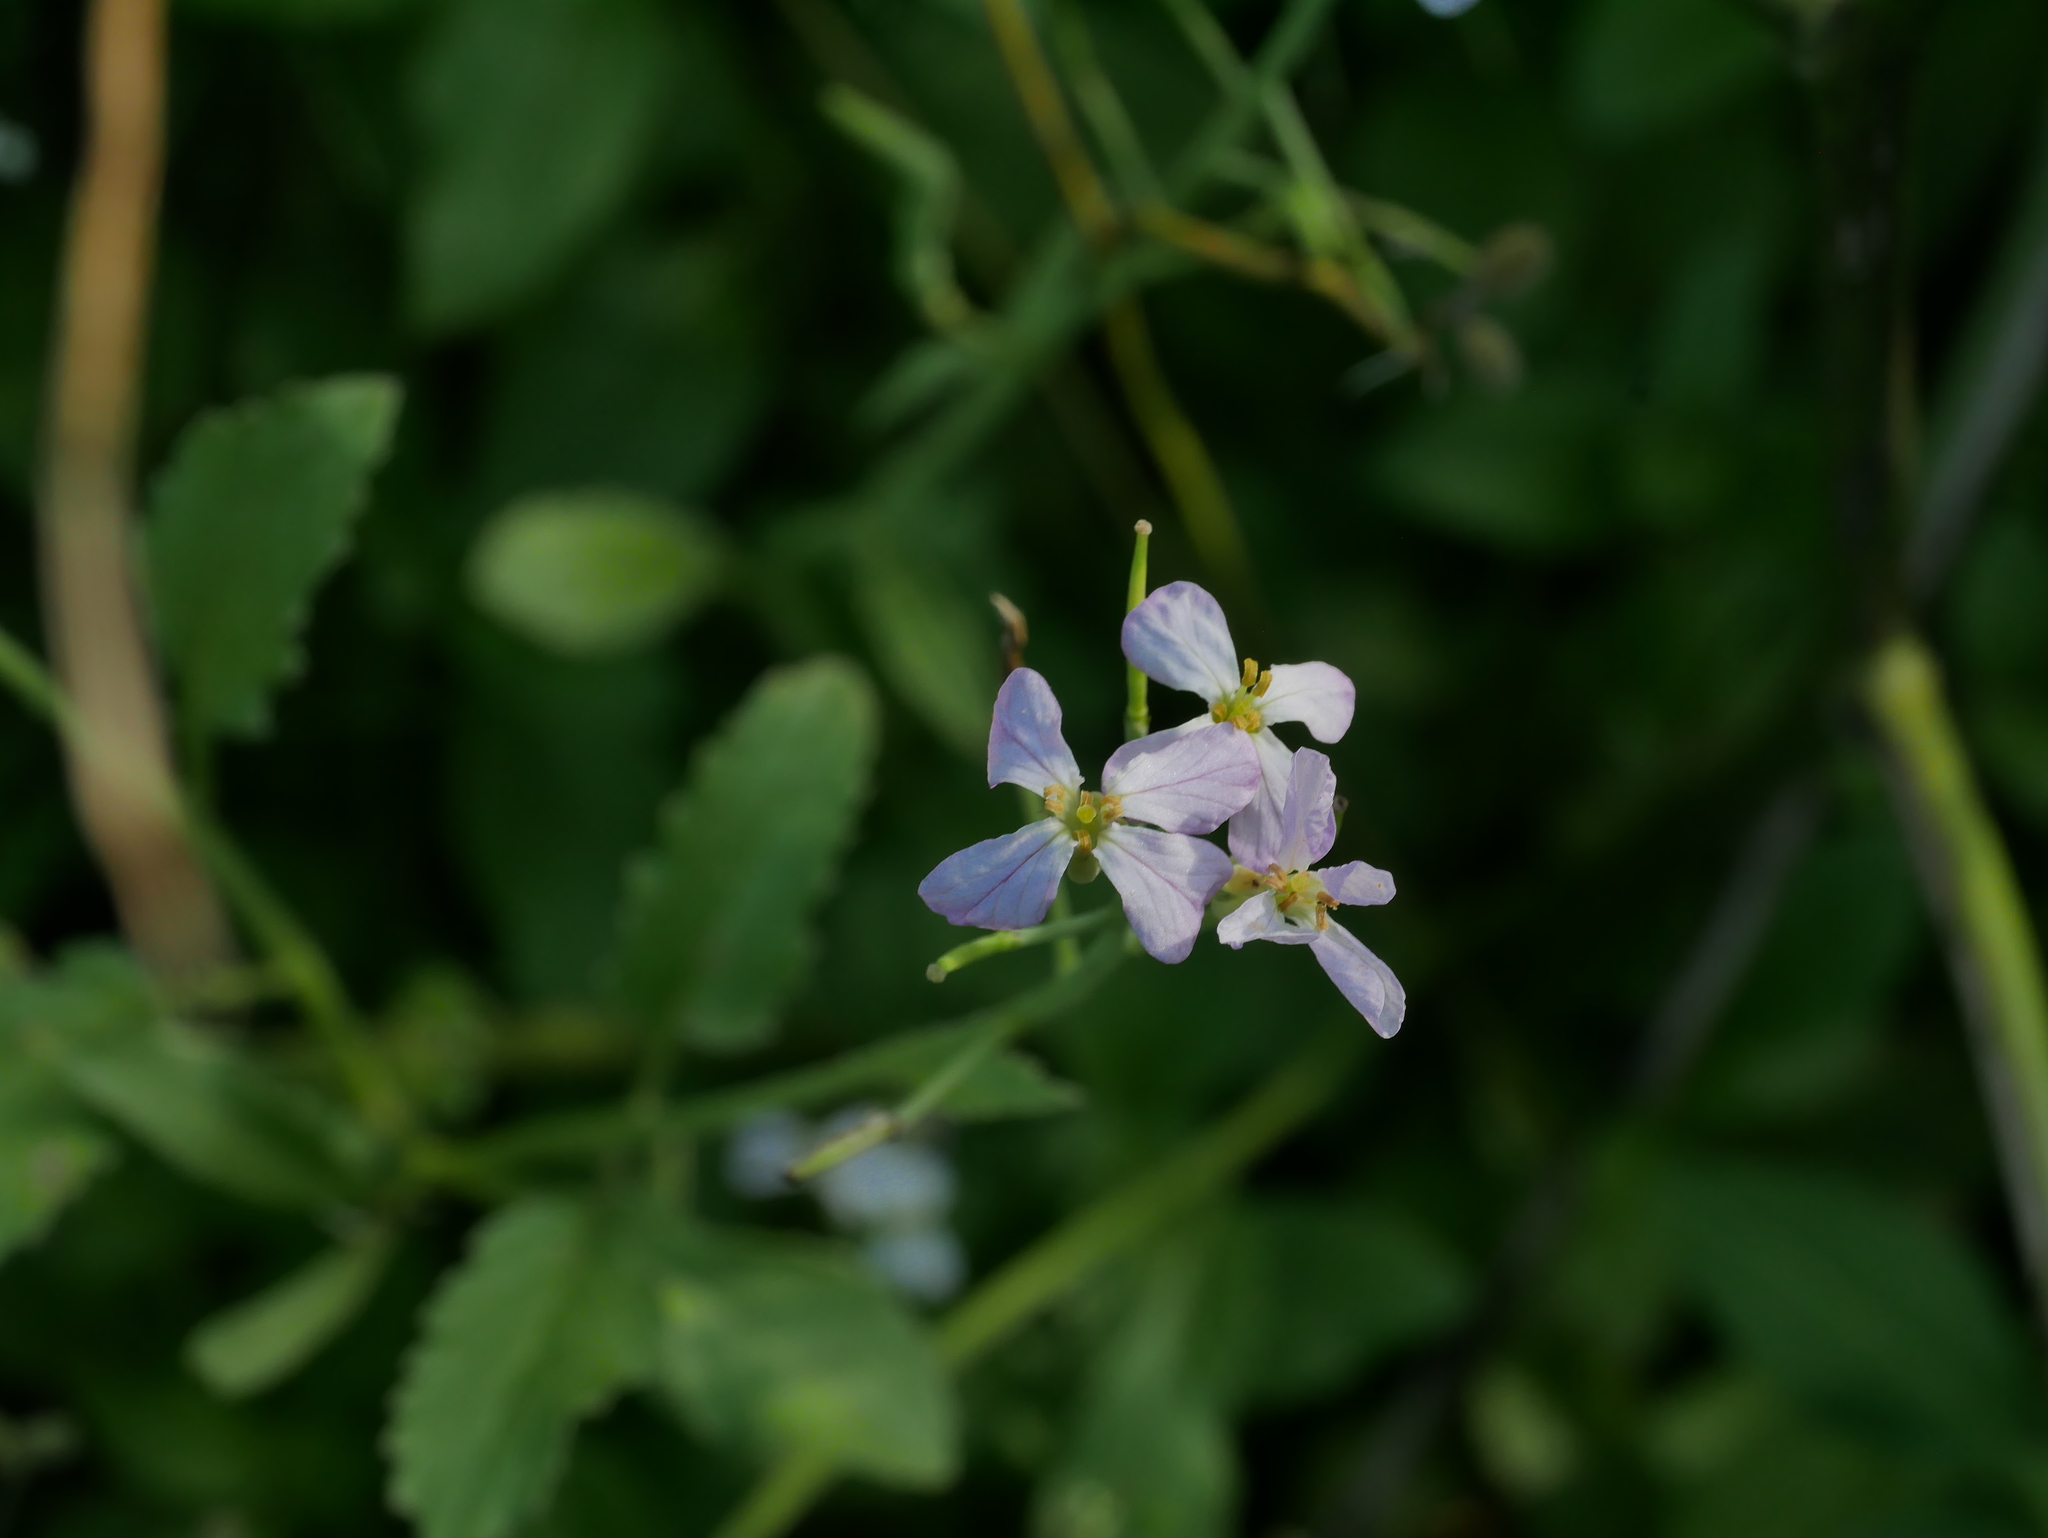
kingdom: Plantae
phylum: Tracheophyta
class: Magnoliopsida
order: Brassicales
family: Brassicaceae
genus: Raphanus
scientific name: Raphanus sativus
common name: Cultivated radish
